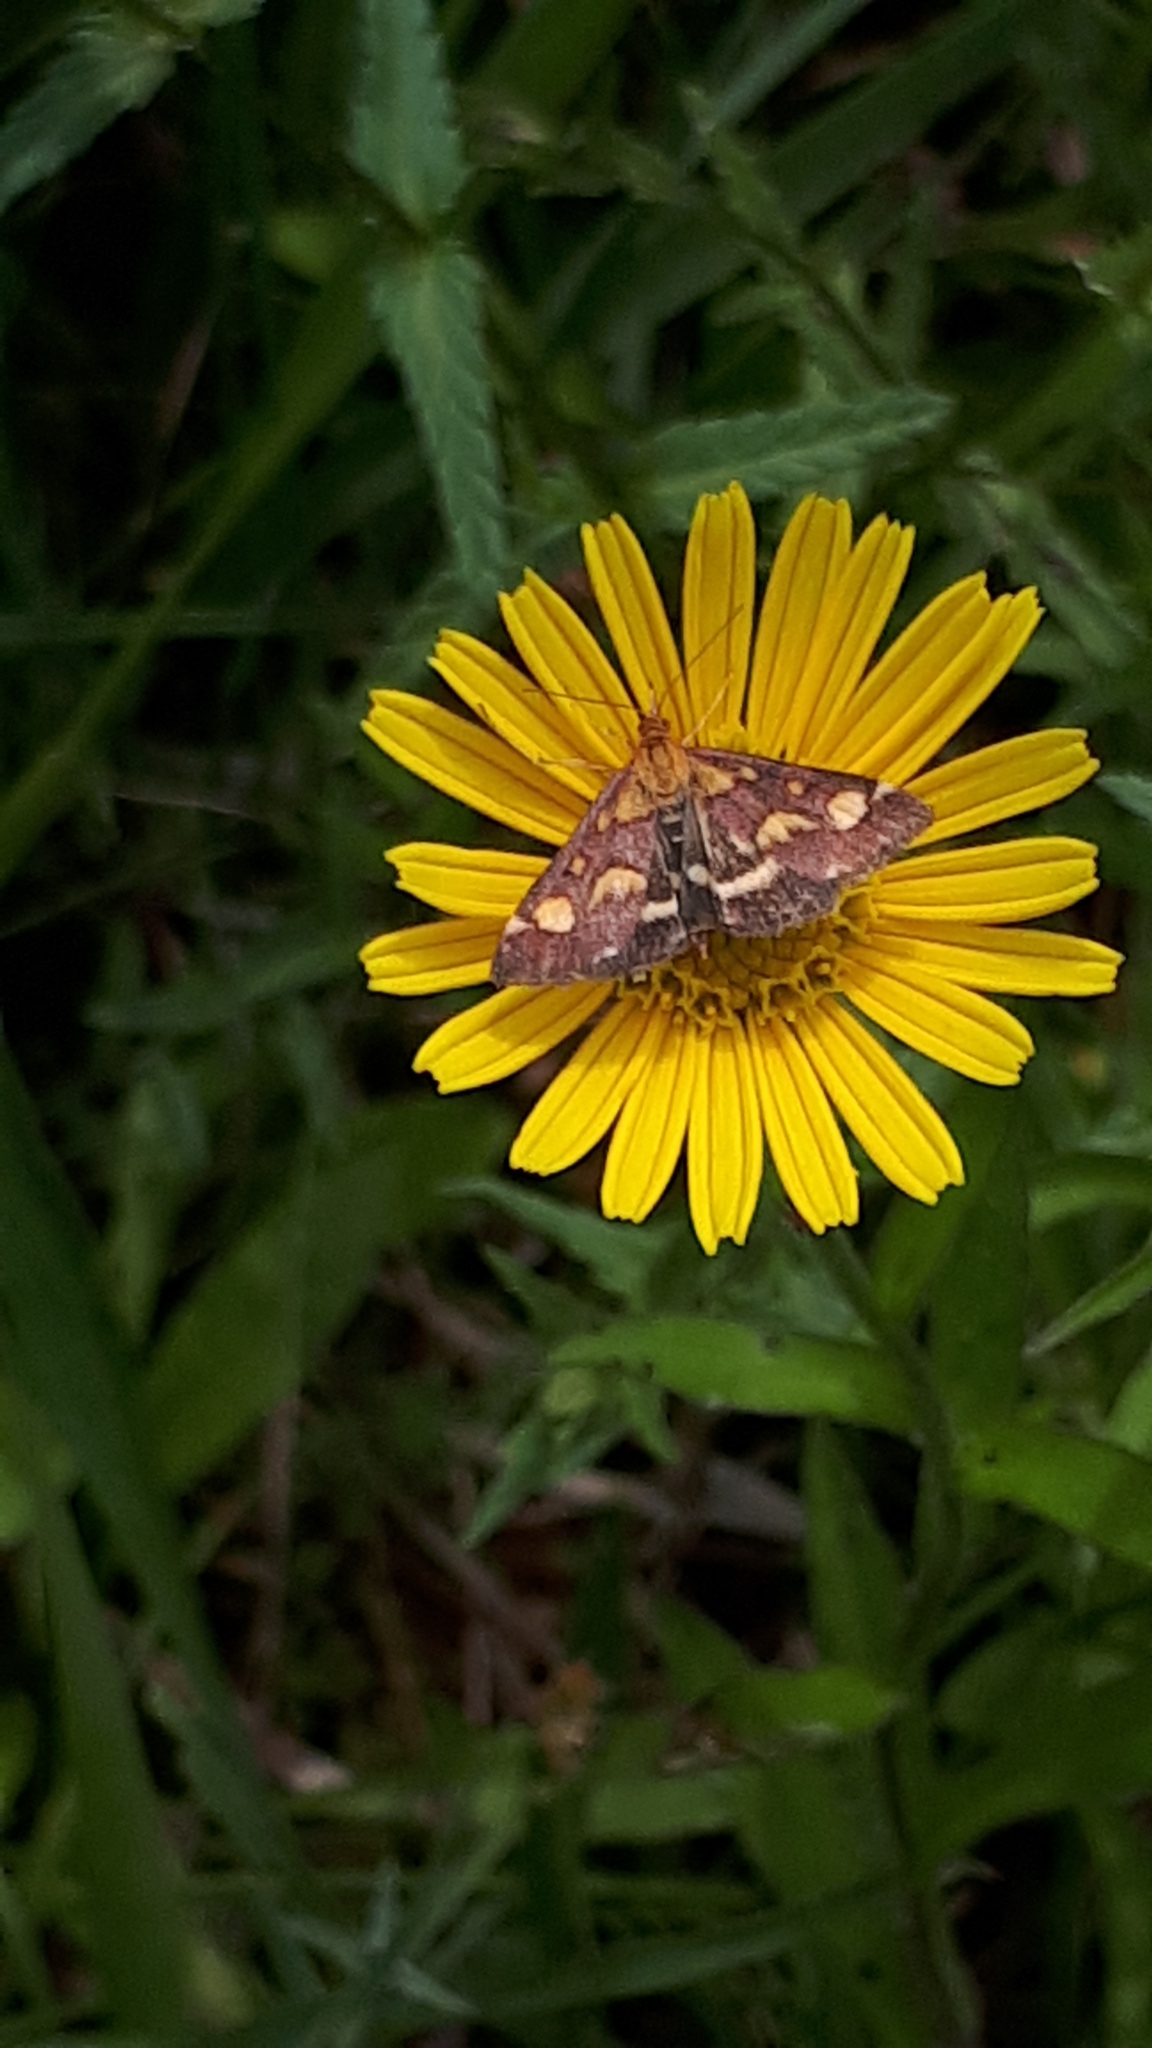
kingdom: Animalia
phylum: Arthropoda
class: Insecta
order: Lepidoptera
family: Crambidae
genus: Pyrausta
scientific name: Pyrausta purpuralis
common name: Common purple & gold
